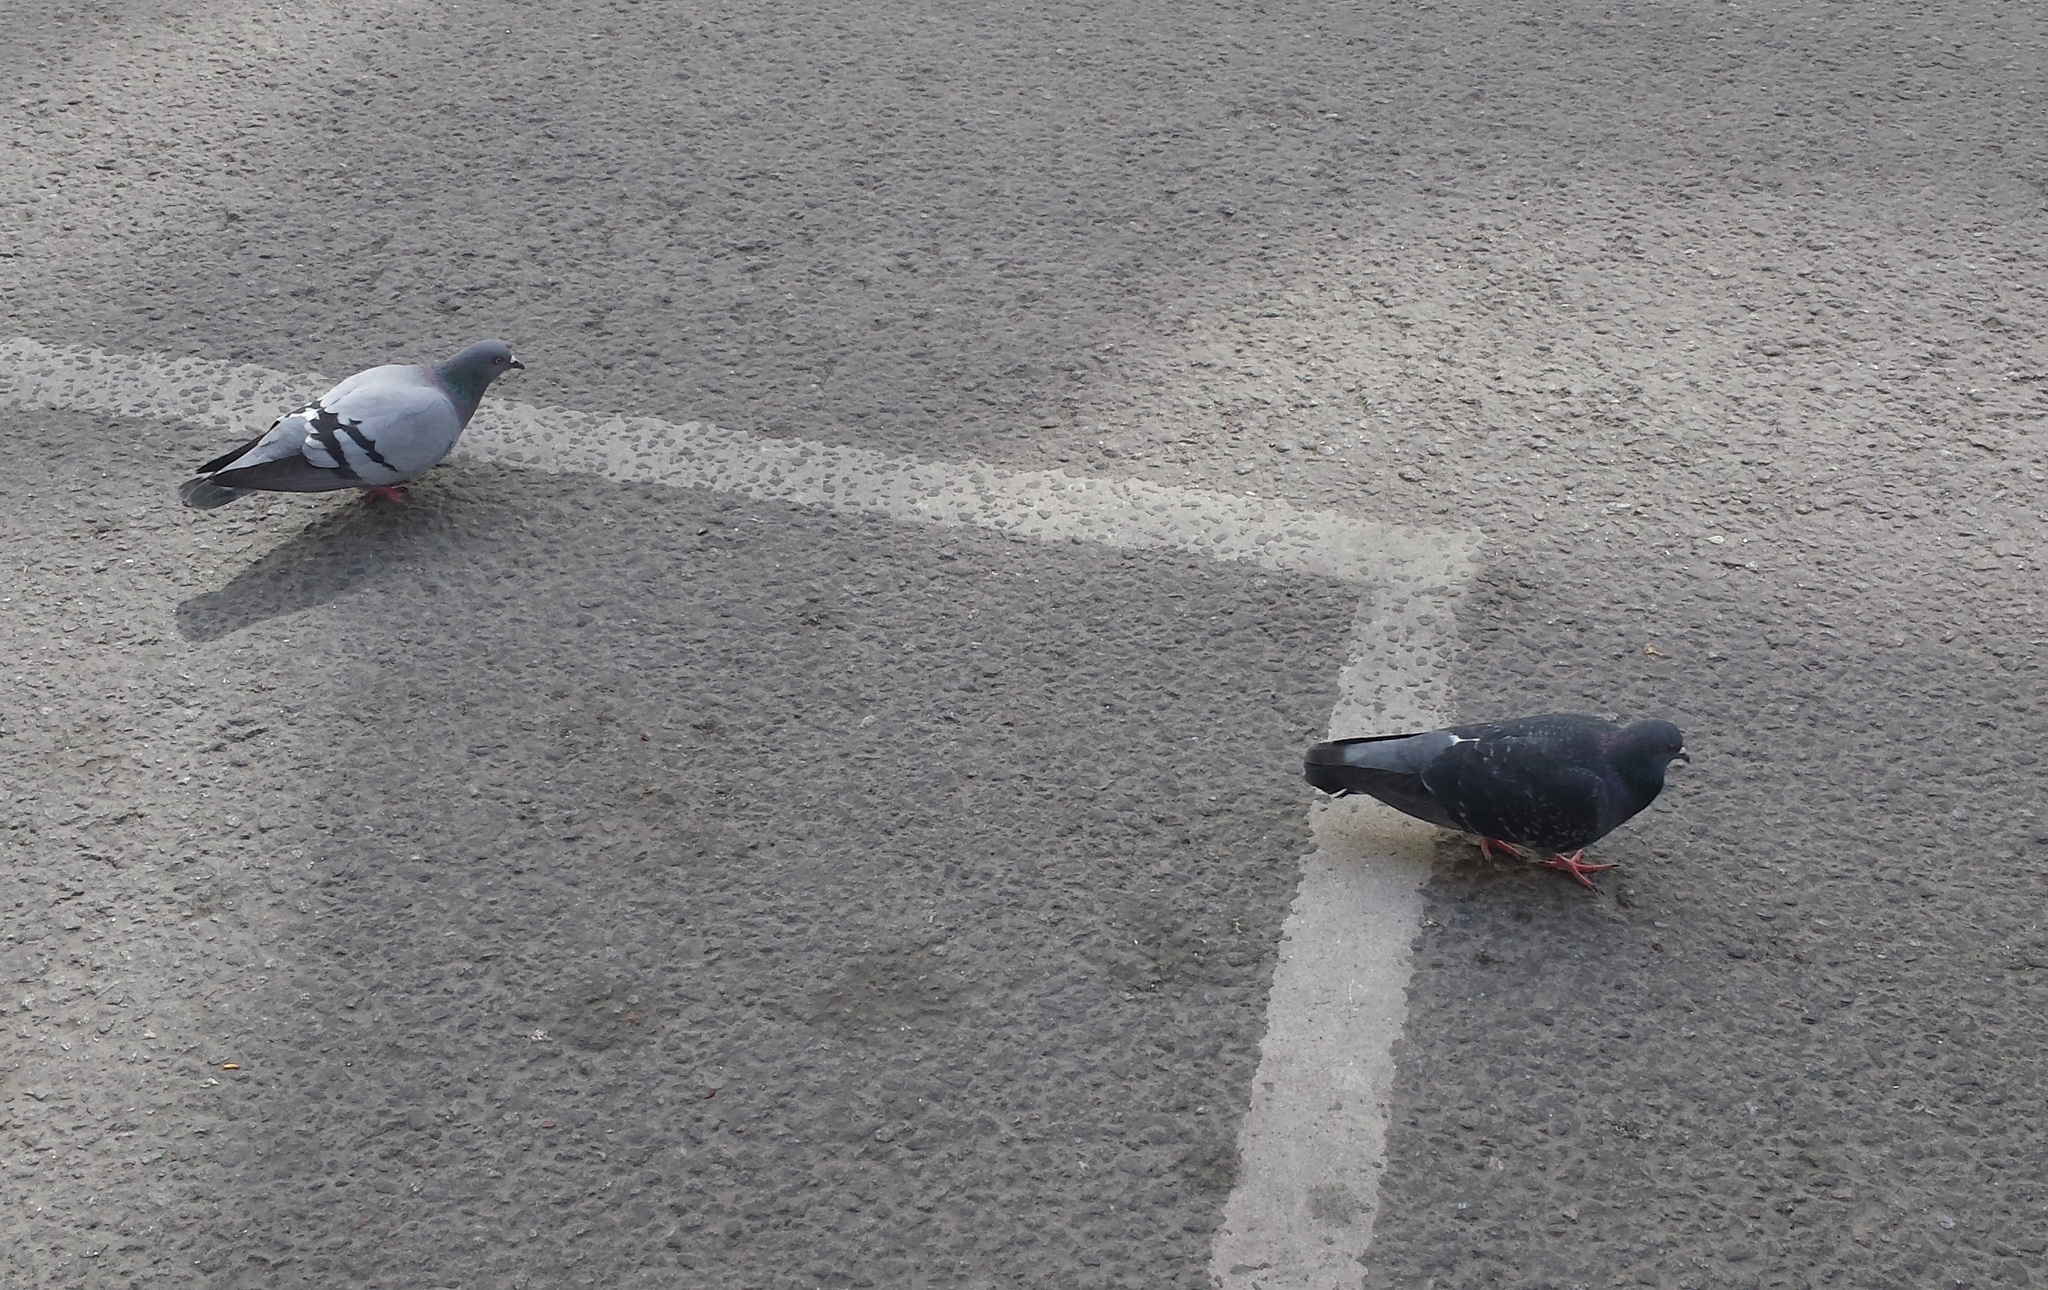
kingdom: Animalia
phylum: Chordata
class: Aves
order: Columbiformes
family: Columbidae
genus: Columba
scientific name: Columba livia
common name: Rock pigeon
